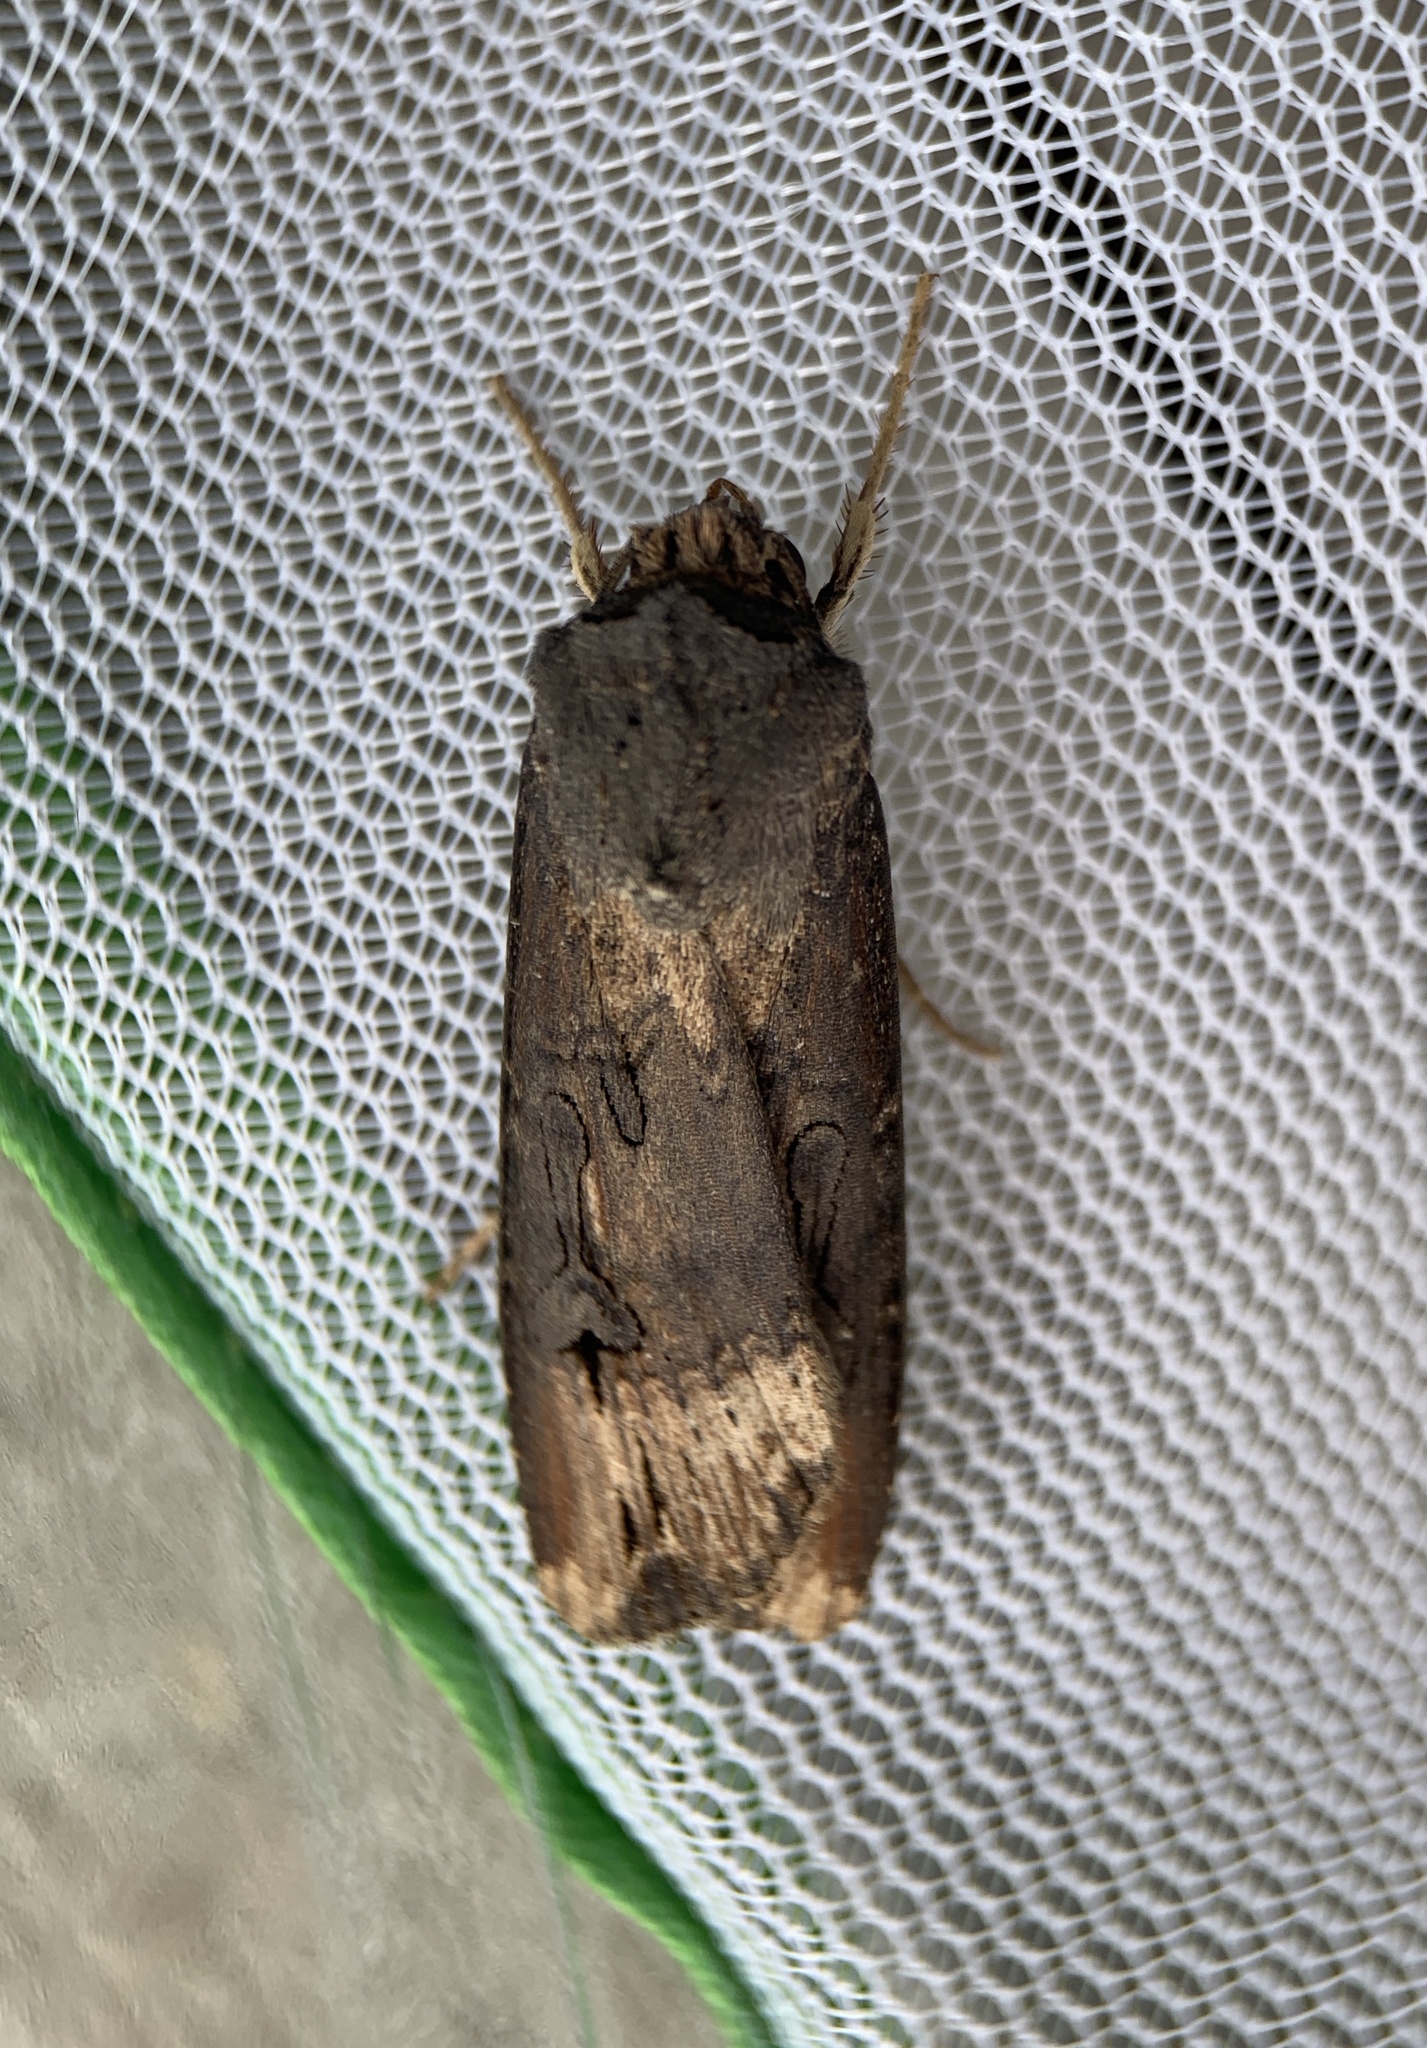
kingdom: Animalia
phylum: Arthropoda
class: Insecta
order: Lepidoptera
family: Noctuidae
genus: Agrotis
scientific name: Agrotis ipsilon
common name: Dark sword-grass
